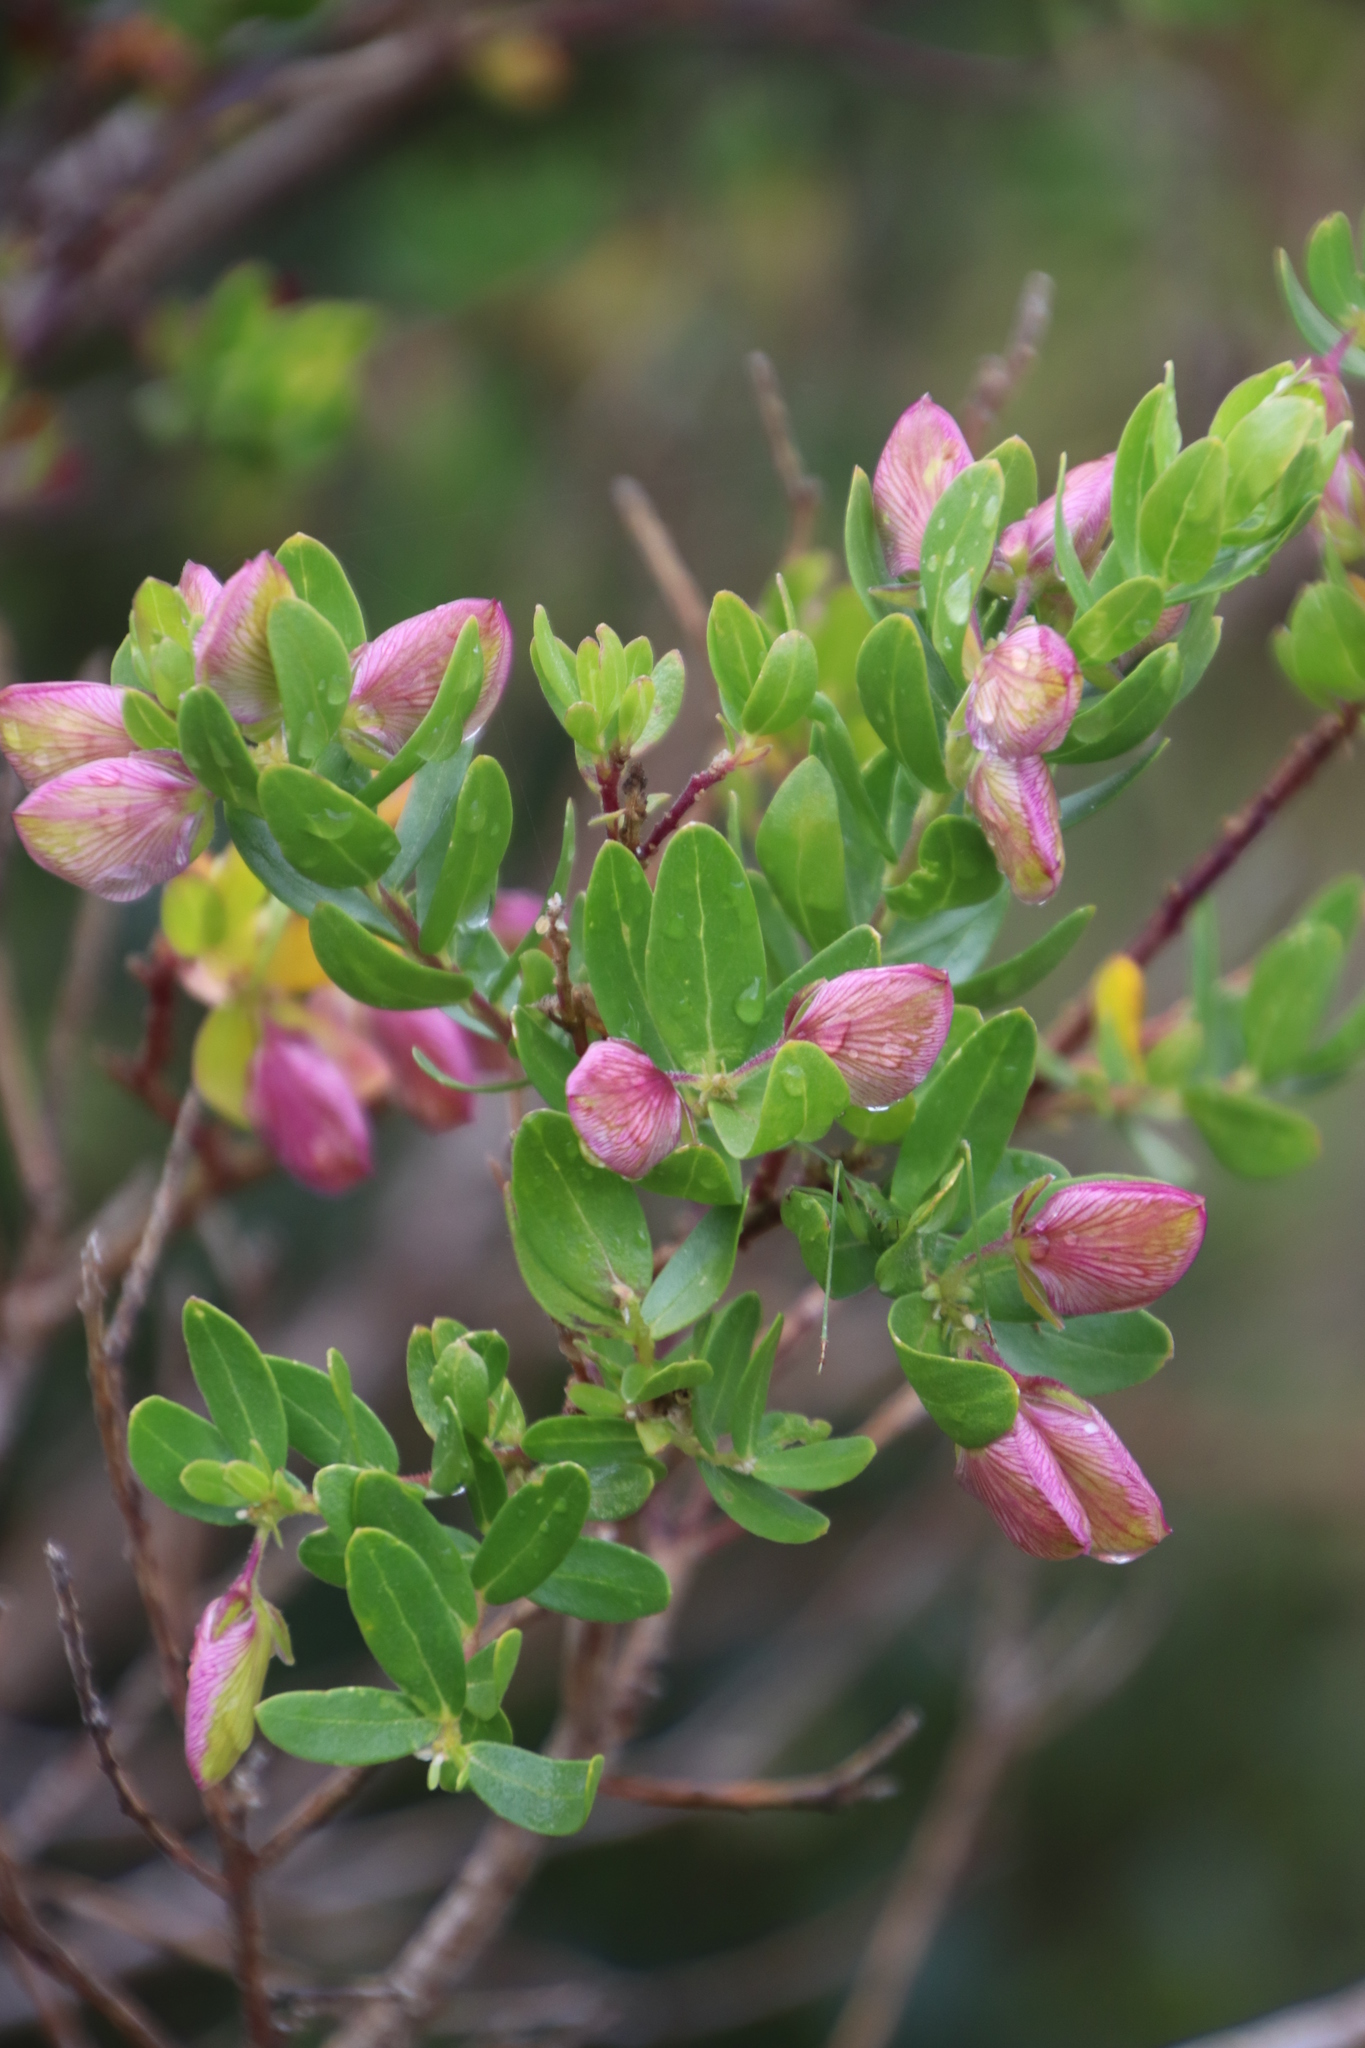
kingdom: Plantae
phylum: Tracheophyta
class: Magnoliopsida
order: Fabales
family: Polygalaceae
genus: Polygala
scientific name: Polygala myrtifolia
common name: Myrtle-leaf milkwort
